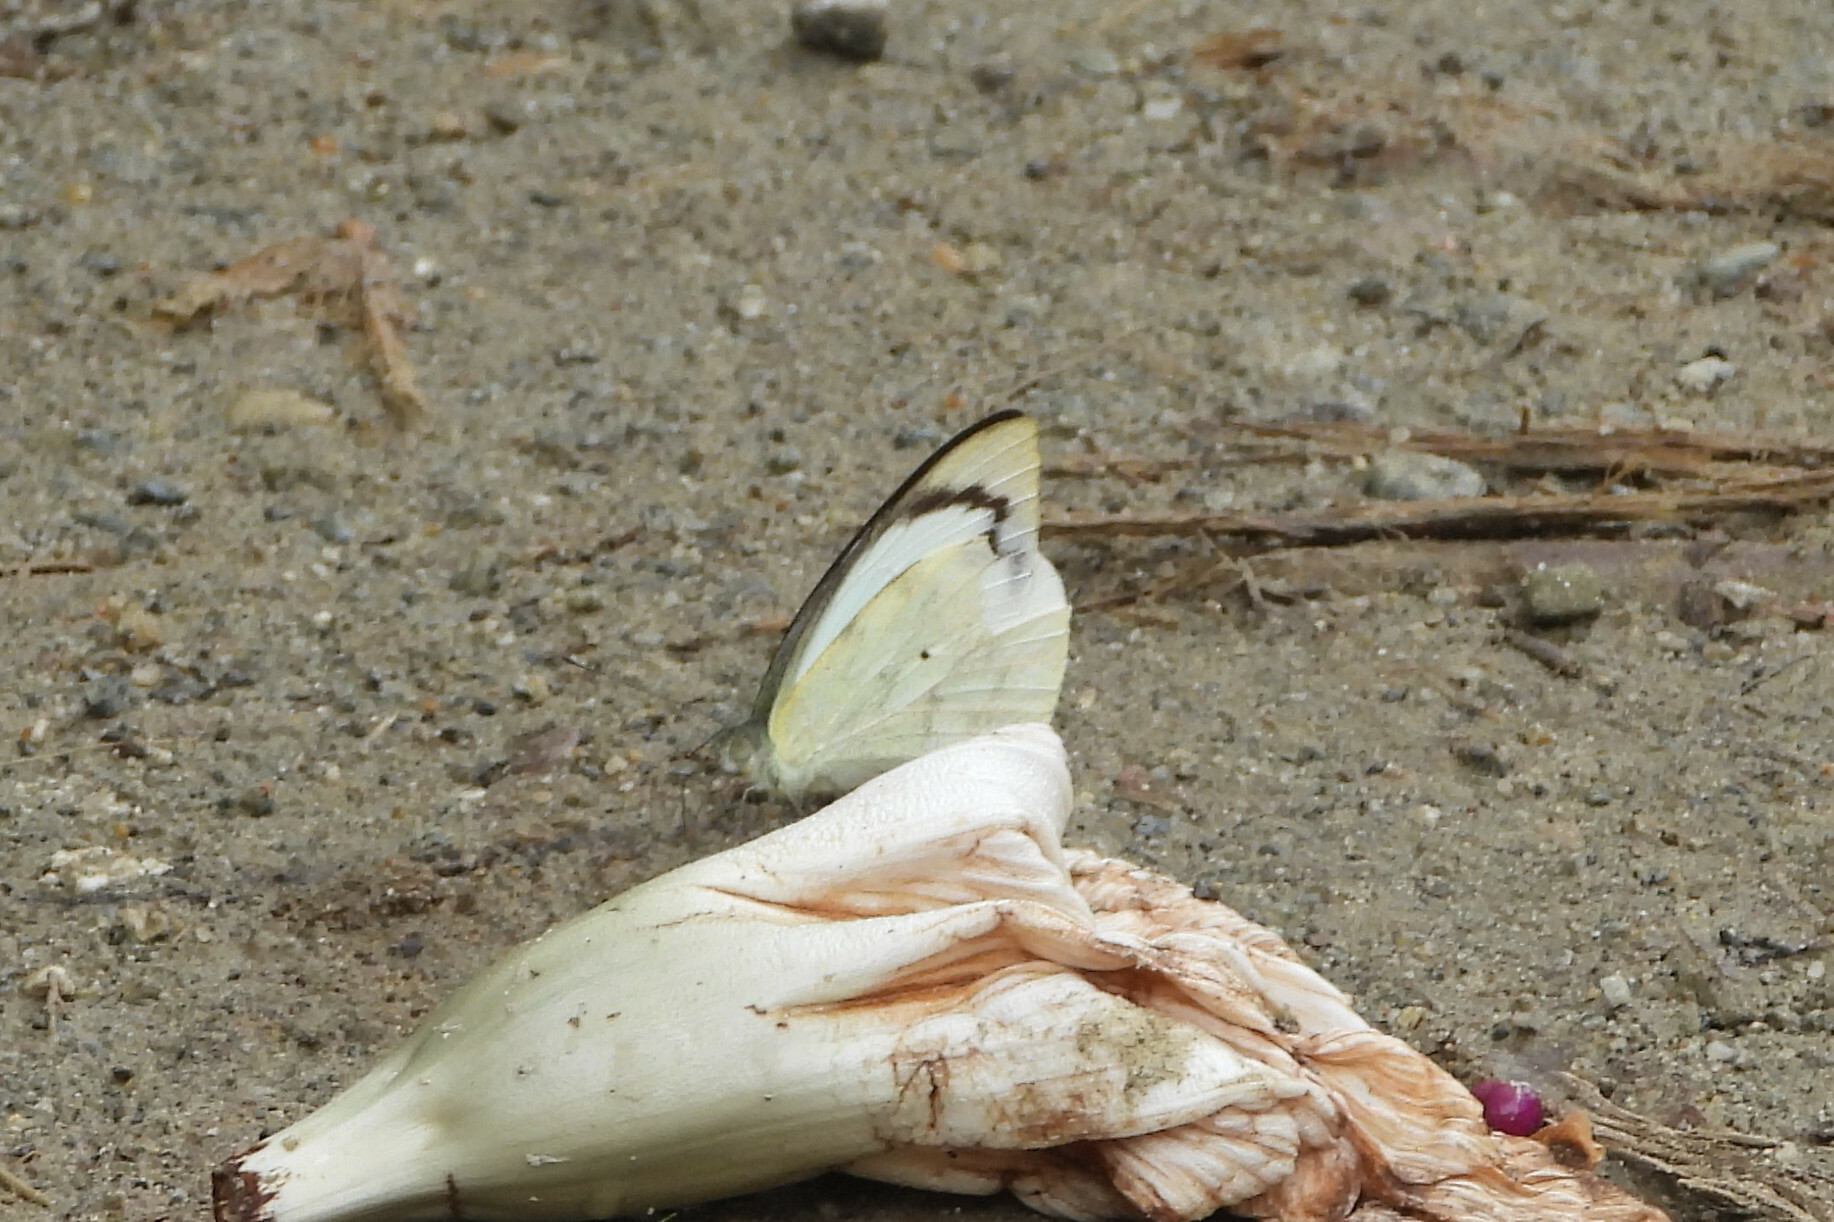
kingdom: Animalia
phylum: Arthropoda
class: Insecta
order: Lepidoptera
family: Pieridae
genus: Appias
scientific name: Appias indra
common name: Plain puffin
